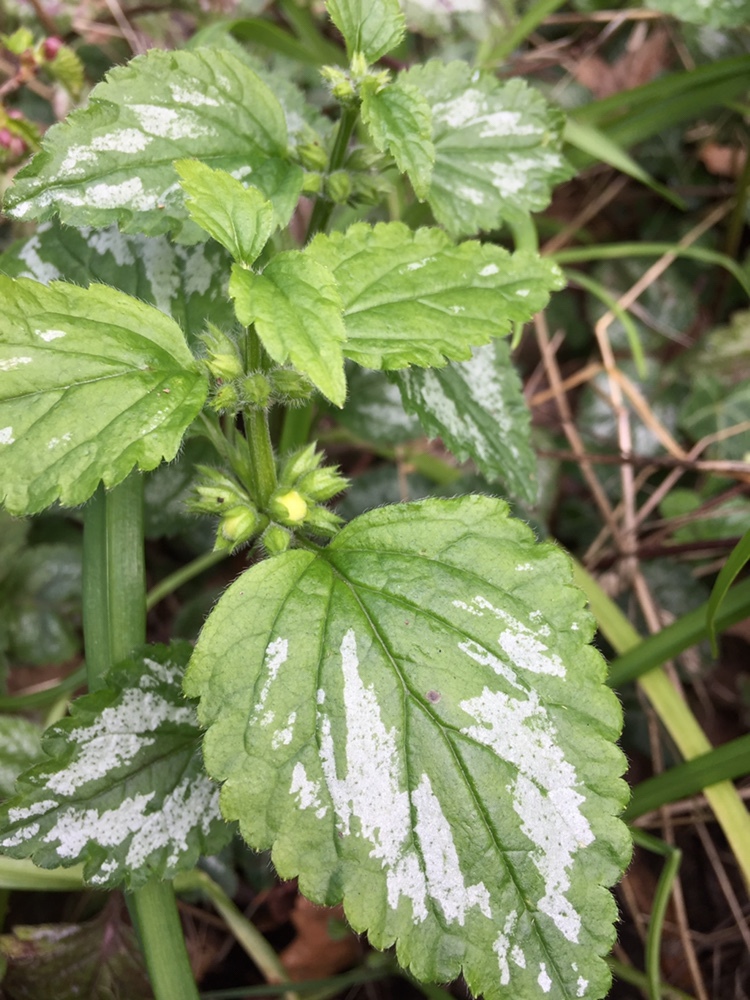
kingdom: Plantae
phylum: Tracheophyta
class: Magnoliopsida
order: Lamiales
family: Lamiaceae
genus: Lamium
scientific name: Lamium galeobdolon
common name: Yellow archangel
